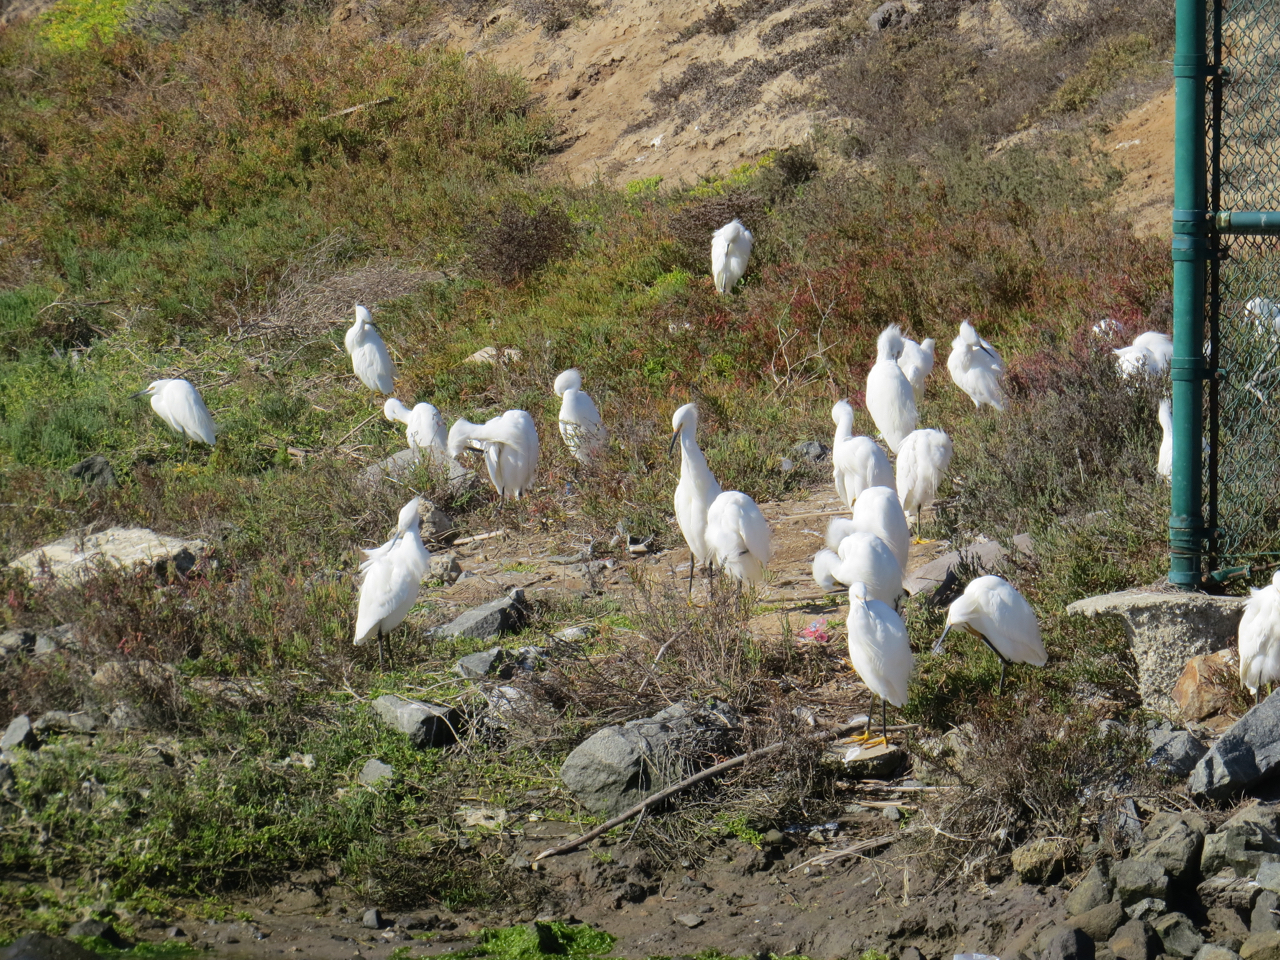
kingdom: Animalia
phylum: Chordata
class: Aves
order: Pelecaniformes
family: Ardeidae
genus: Egretta
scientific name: Egretta thula
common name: Snowy egret
